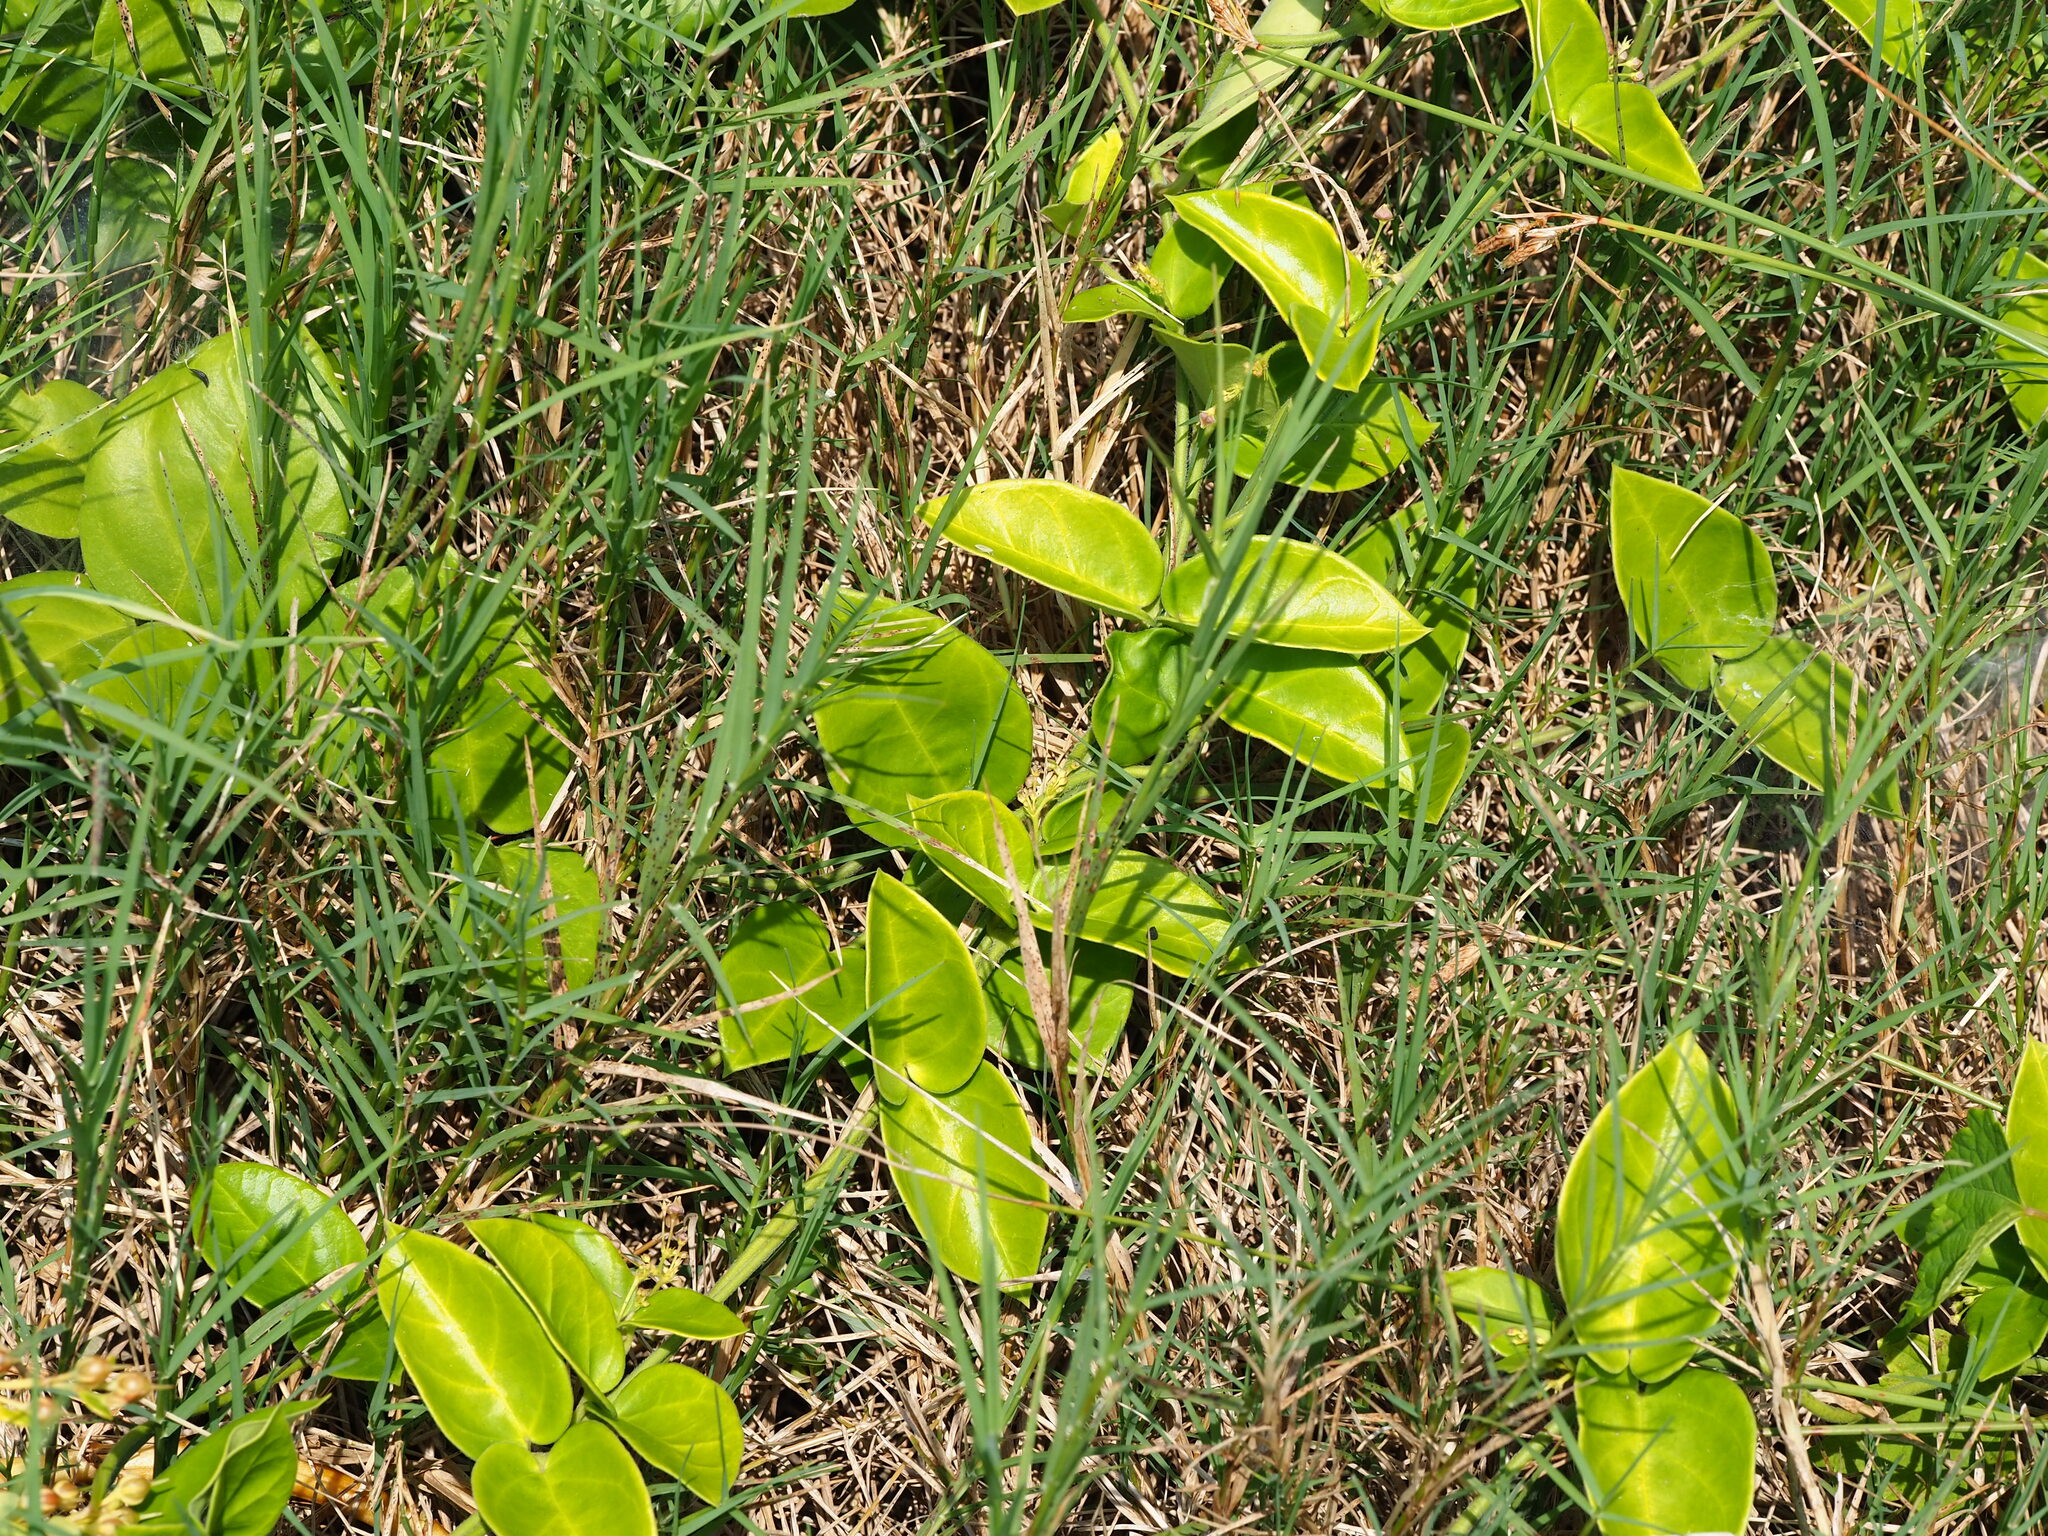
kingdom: Plantae
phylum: Tracheophyta
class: Magnoliopsida
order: Gentianales
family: Apocynaceae
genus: Vincetoxicum
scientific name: Vincetoxicum hirsutum
